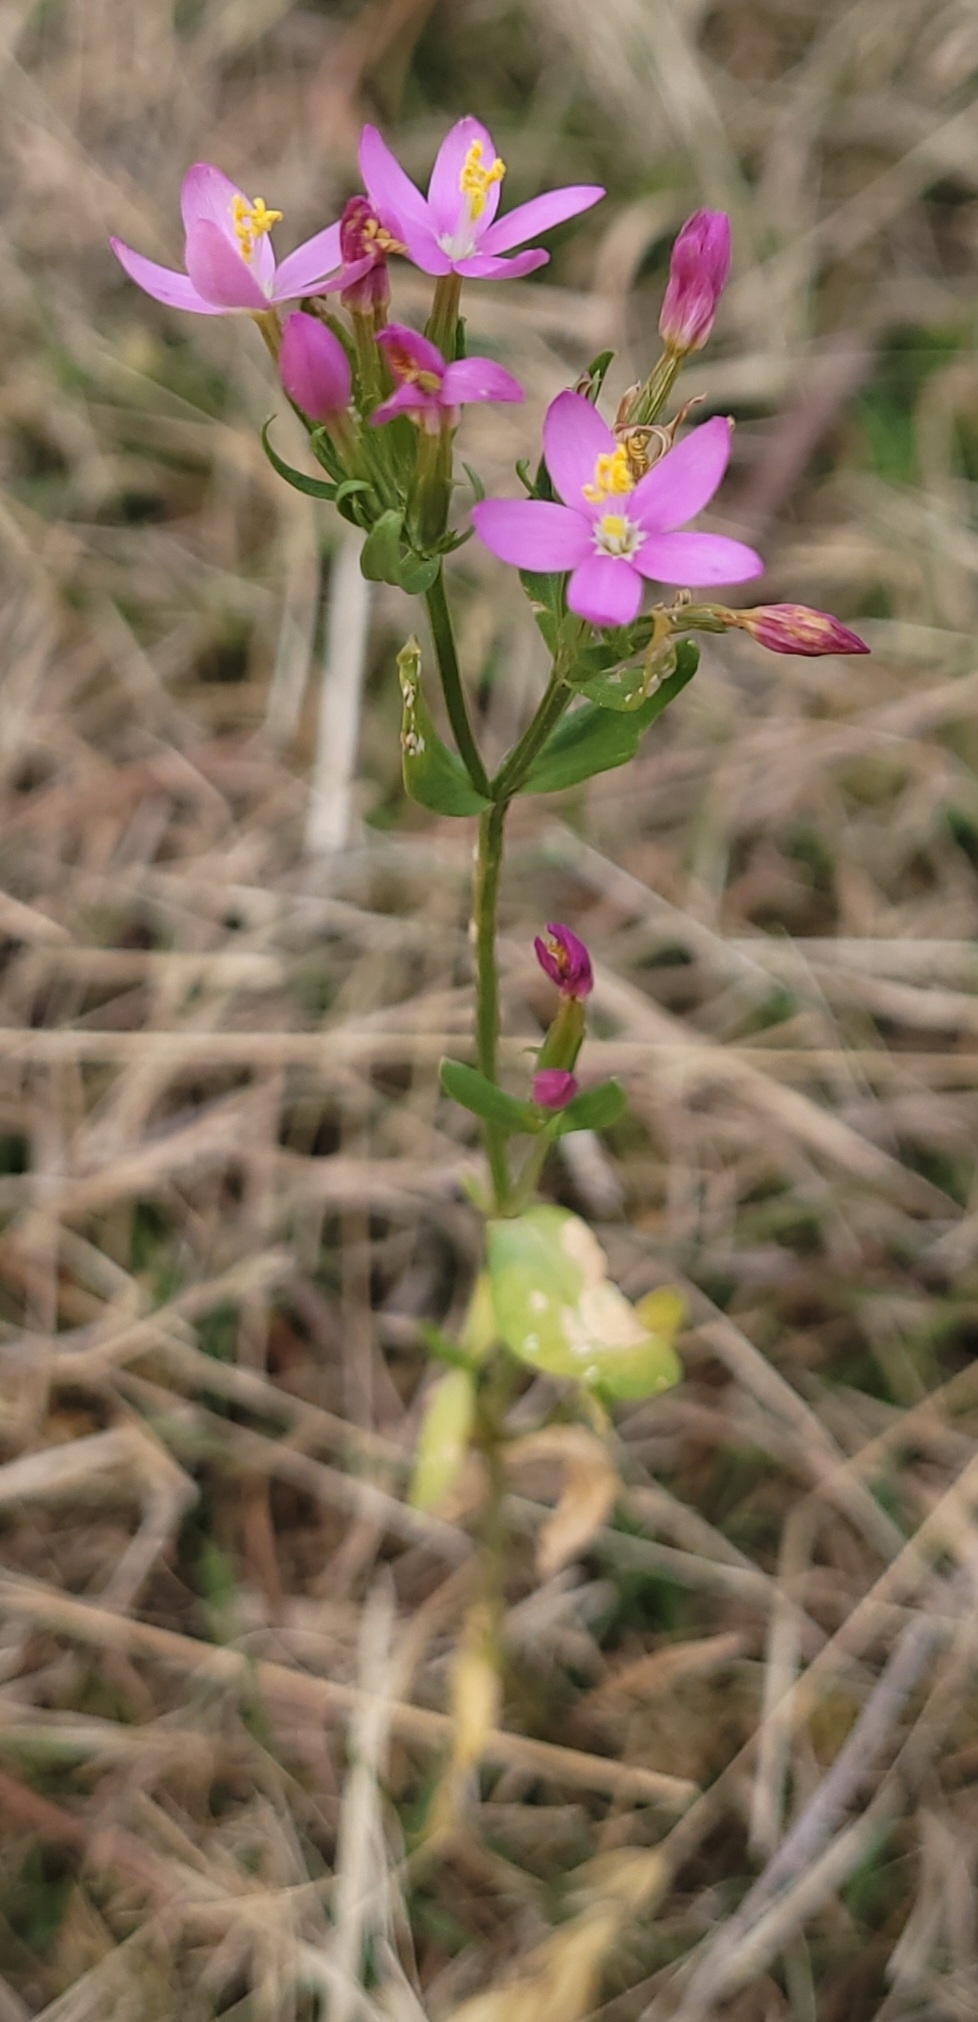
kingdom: Plantae
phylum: Tracheophyta
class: Magnoliopsida
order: Gentianales
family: Gentianaceae
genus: Centaurium
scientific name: Centaurium tenuiflorum
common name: Slender centaury
